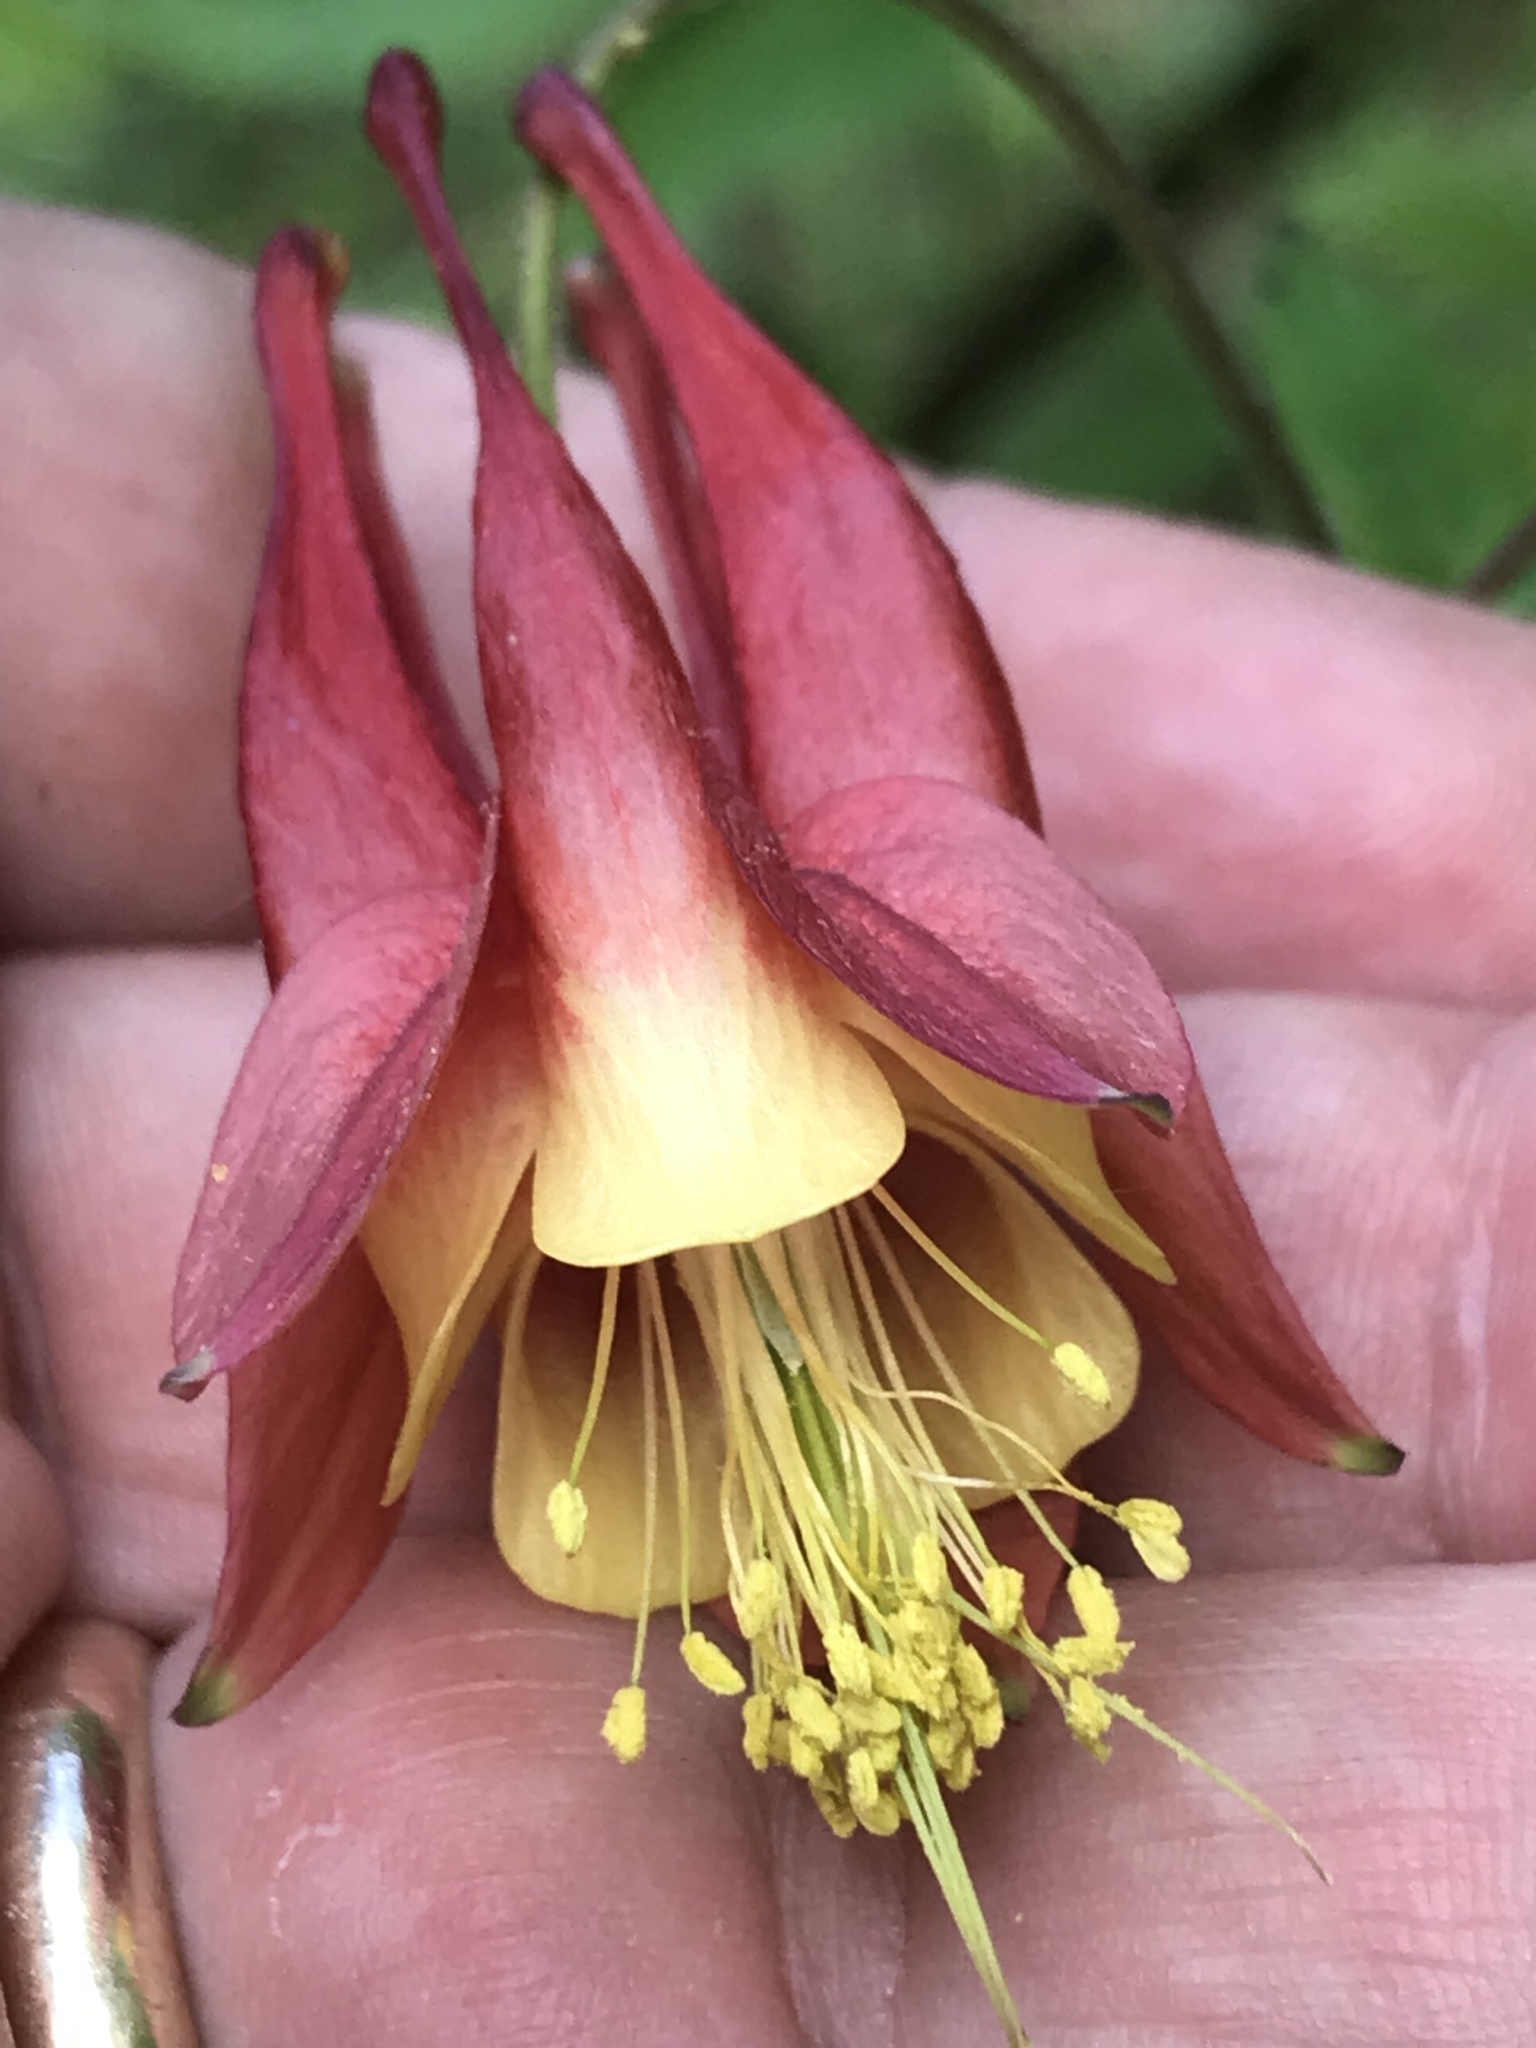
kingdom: Plantae
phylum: Tracheophyta
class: Magnoliopsida
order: Ranunculales
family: Ranunculaceae
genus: Aquilegia
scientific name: Aquilegia canadensis
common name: American columbine
